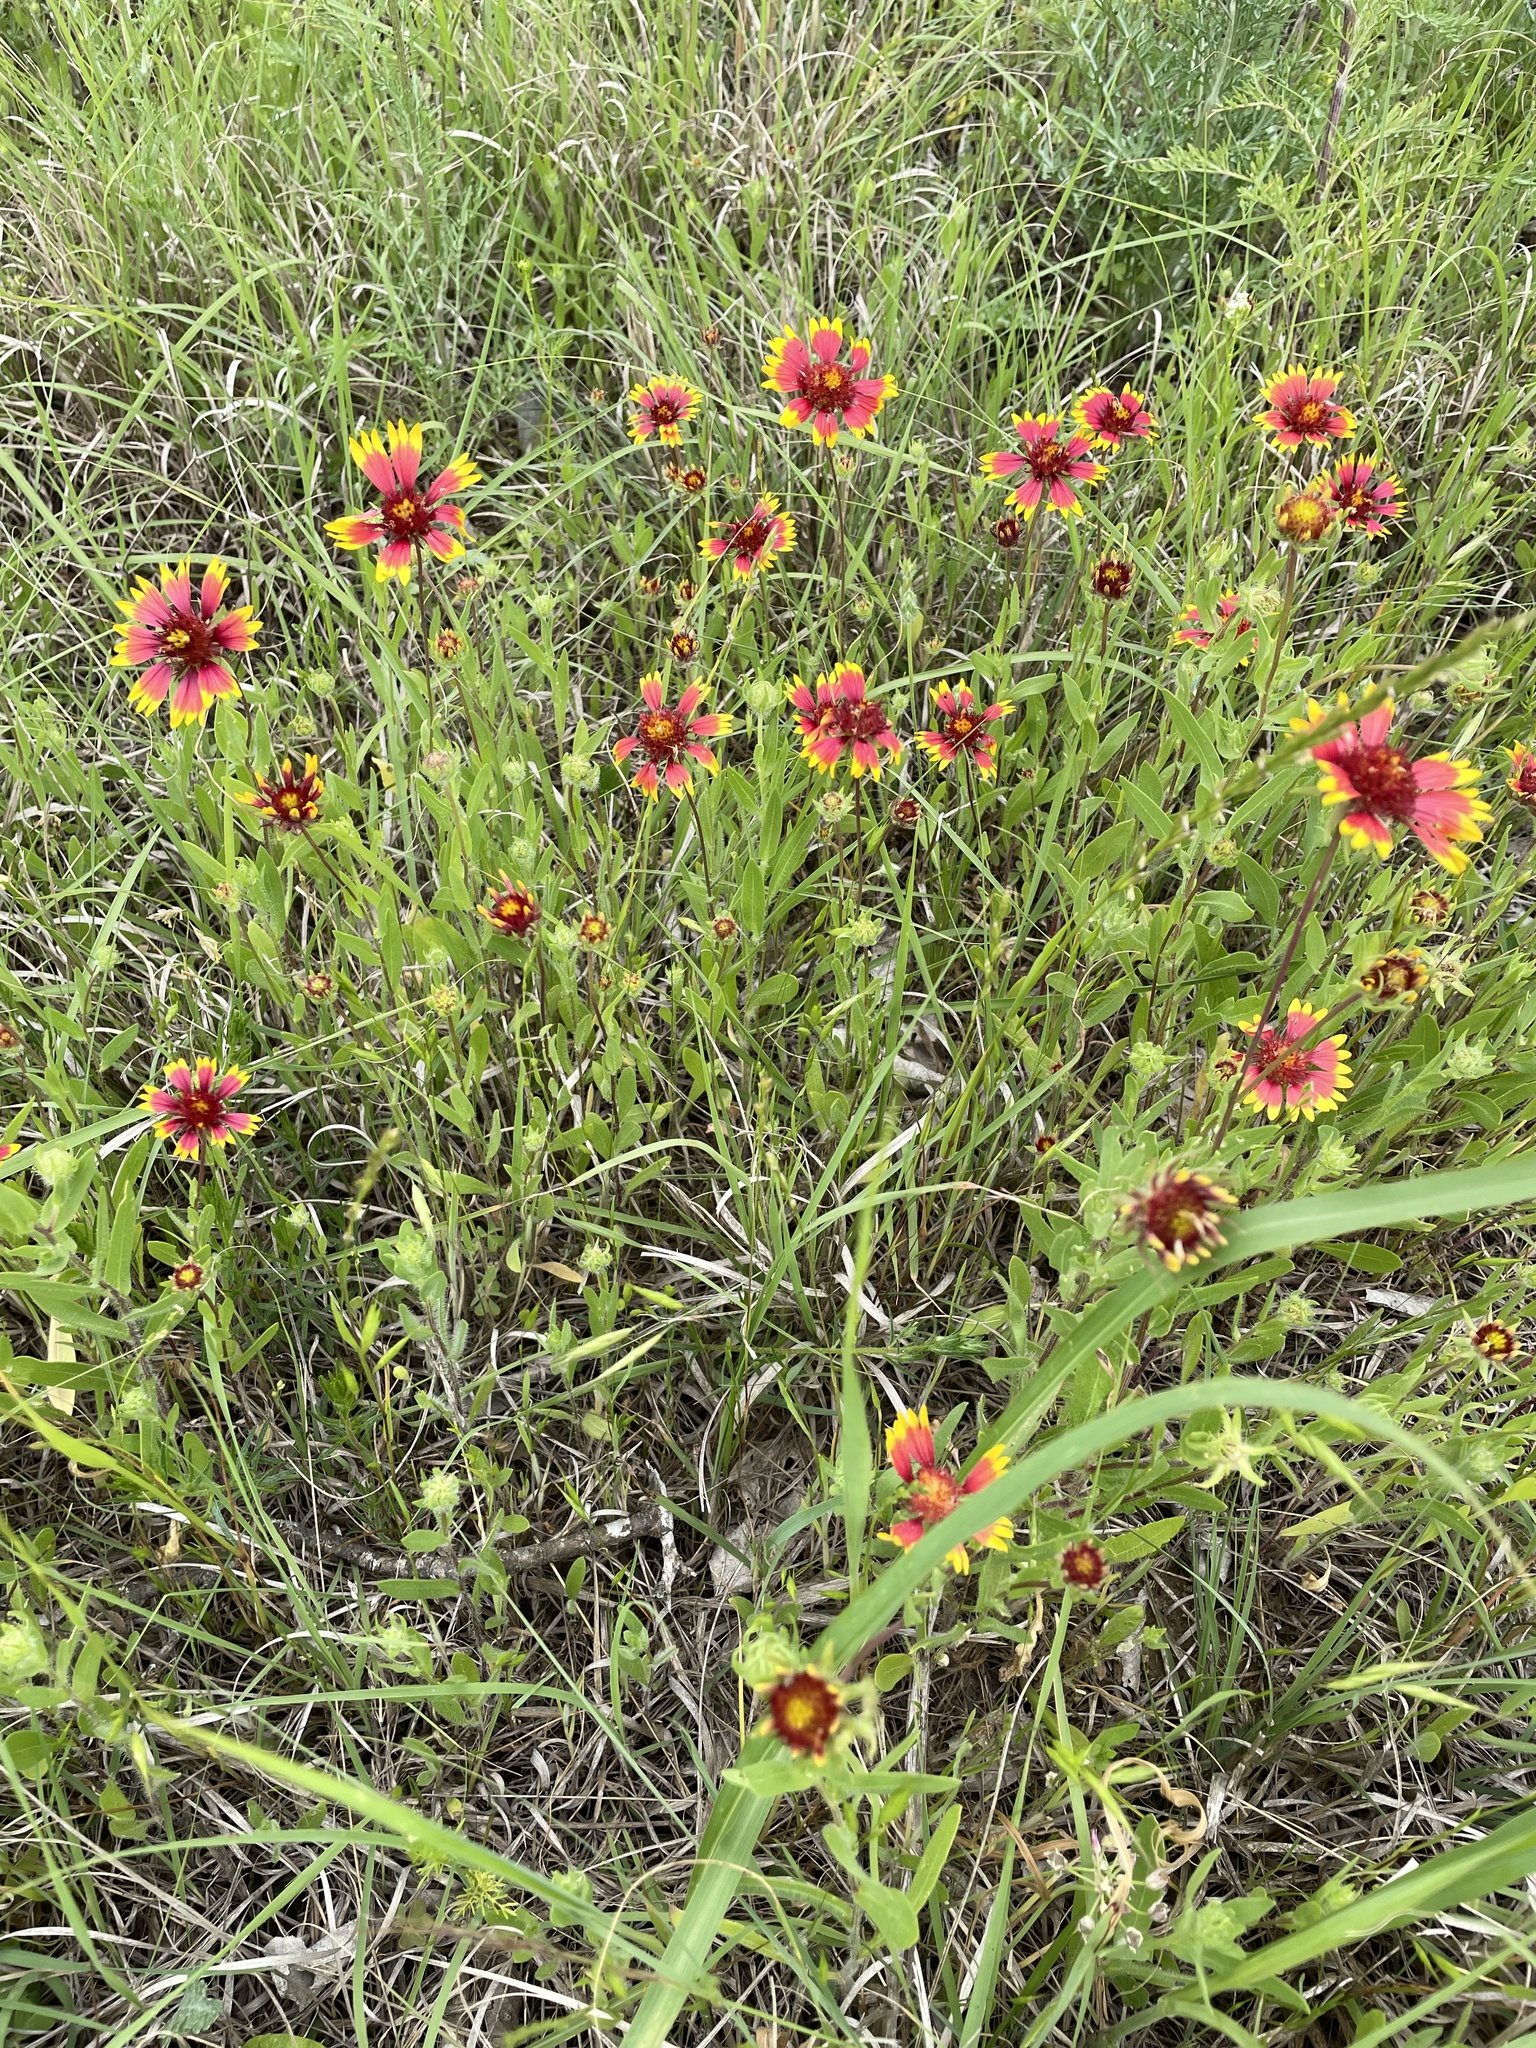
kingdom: Plantae
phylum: Tracheophyta
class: Magnoliopsida
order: Asterales
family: Asteraceae
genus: Gaillardia
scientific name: Gaillardia pulchella
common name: Firewheel
